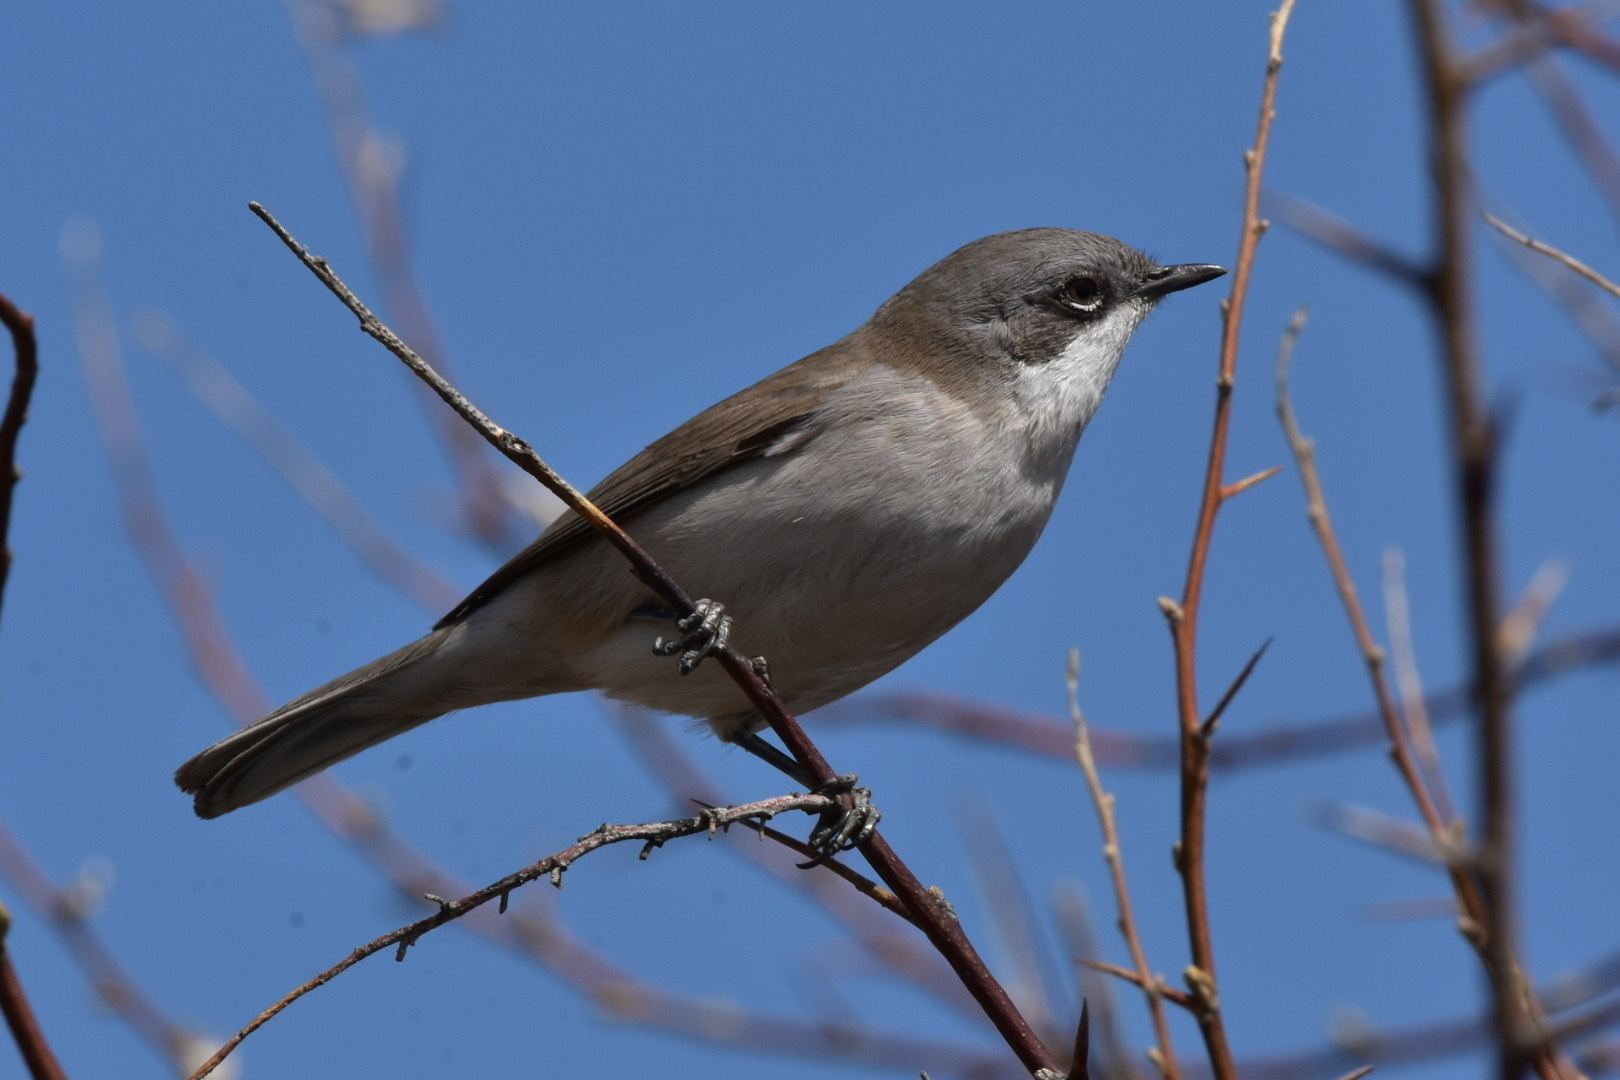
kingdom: Animalia
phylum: Chordata
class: Aves
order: Passeriformes
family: Sylviidae
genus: Sylvia
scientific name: Sylvia curruca
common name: Lesser whitethroat
